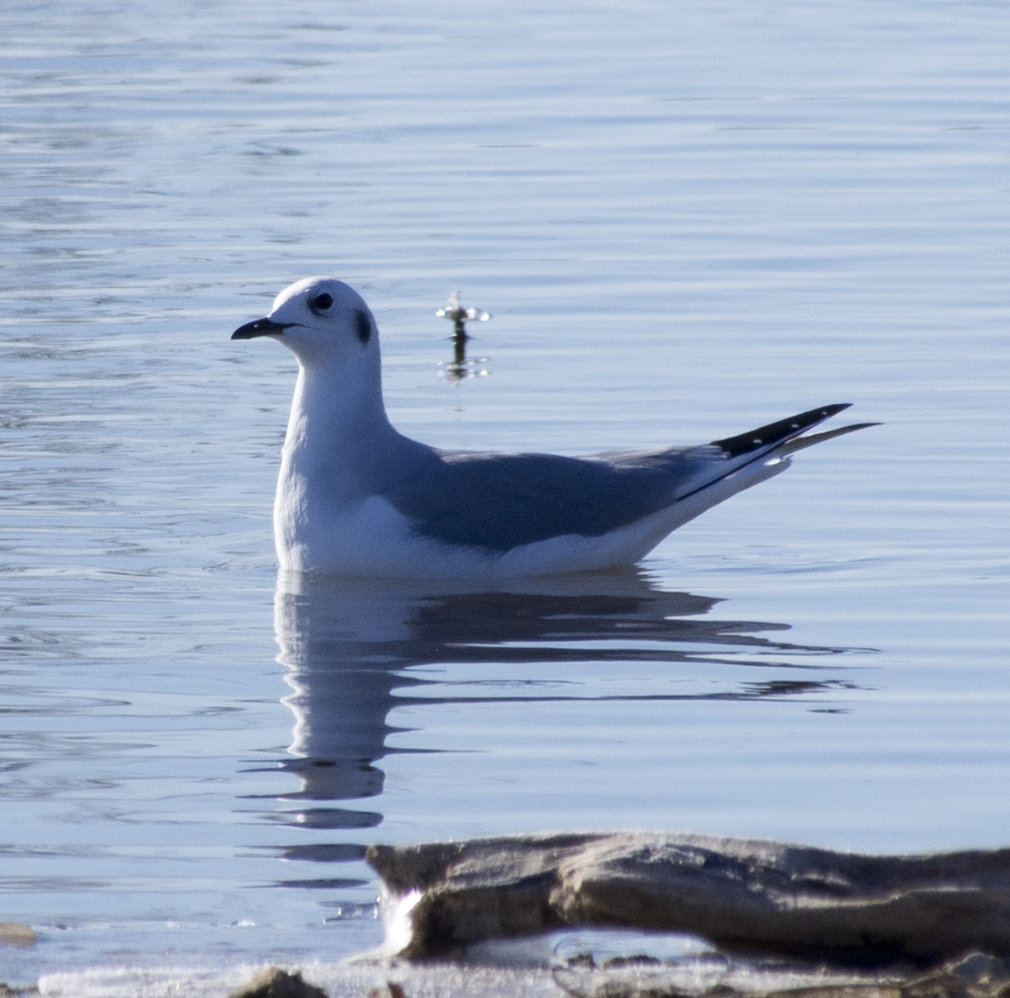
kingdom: Animalia
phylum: Chordata
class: Aves
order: Charadriiformes
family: Laridae
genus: Chroicocephalus
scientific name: Chroicocephalus philadelphia
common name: Bonaparte's gull
